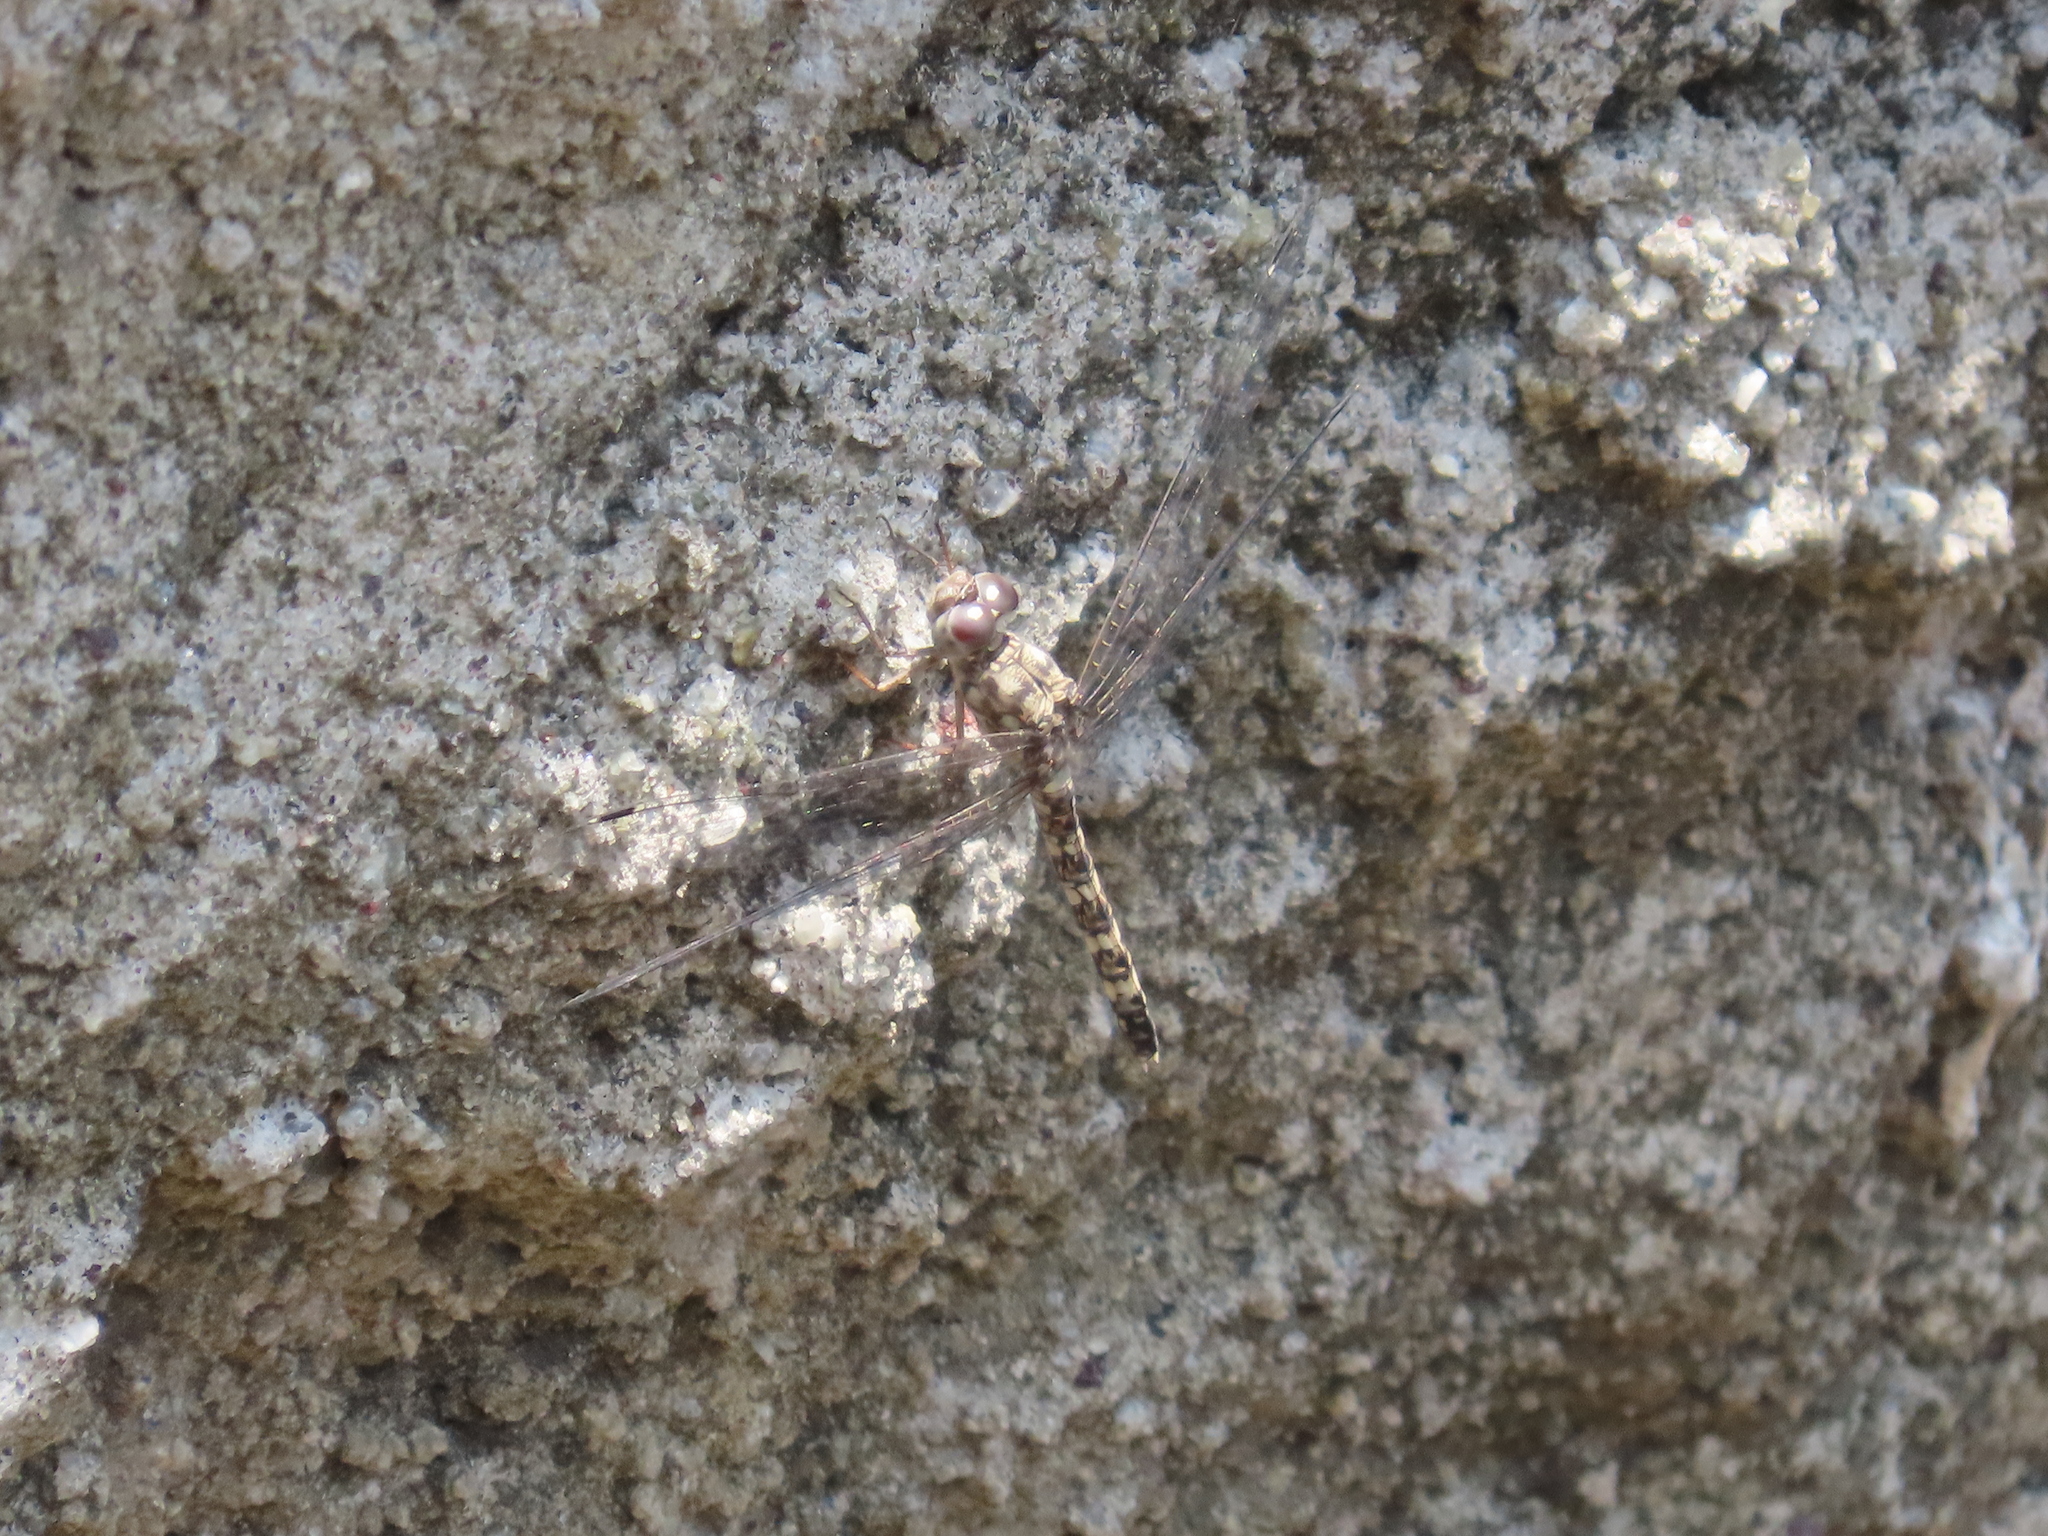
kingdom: Animalia
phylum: Arthropoda
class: Insecta
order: Odonata
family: Libellulidae
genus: Bradinopyga
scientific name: Bradinopyga geminata
